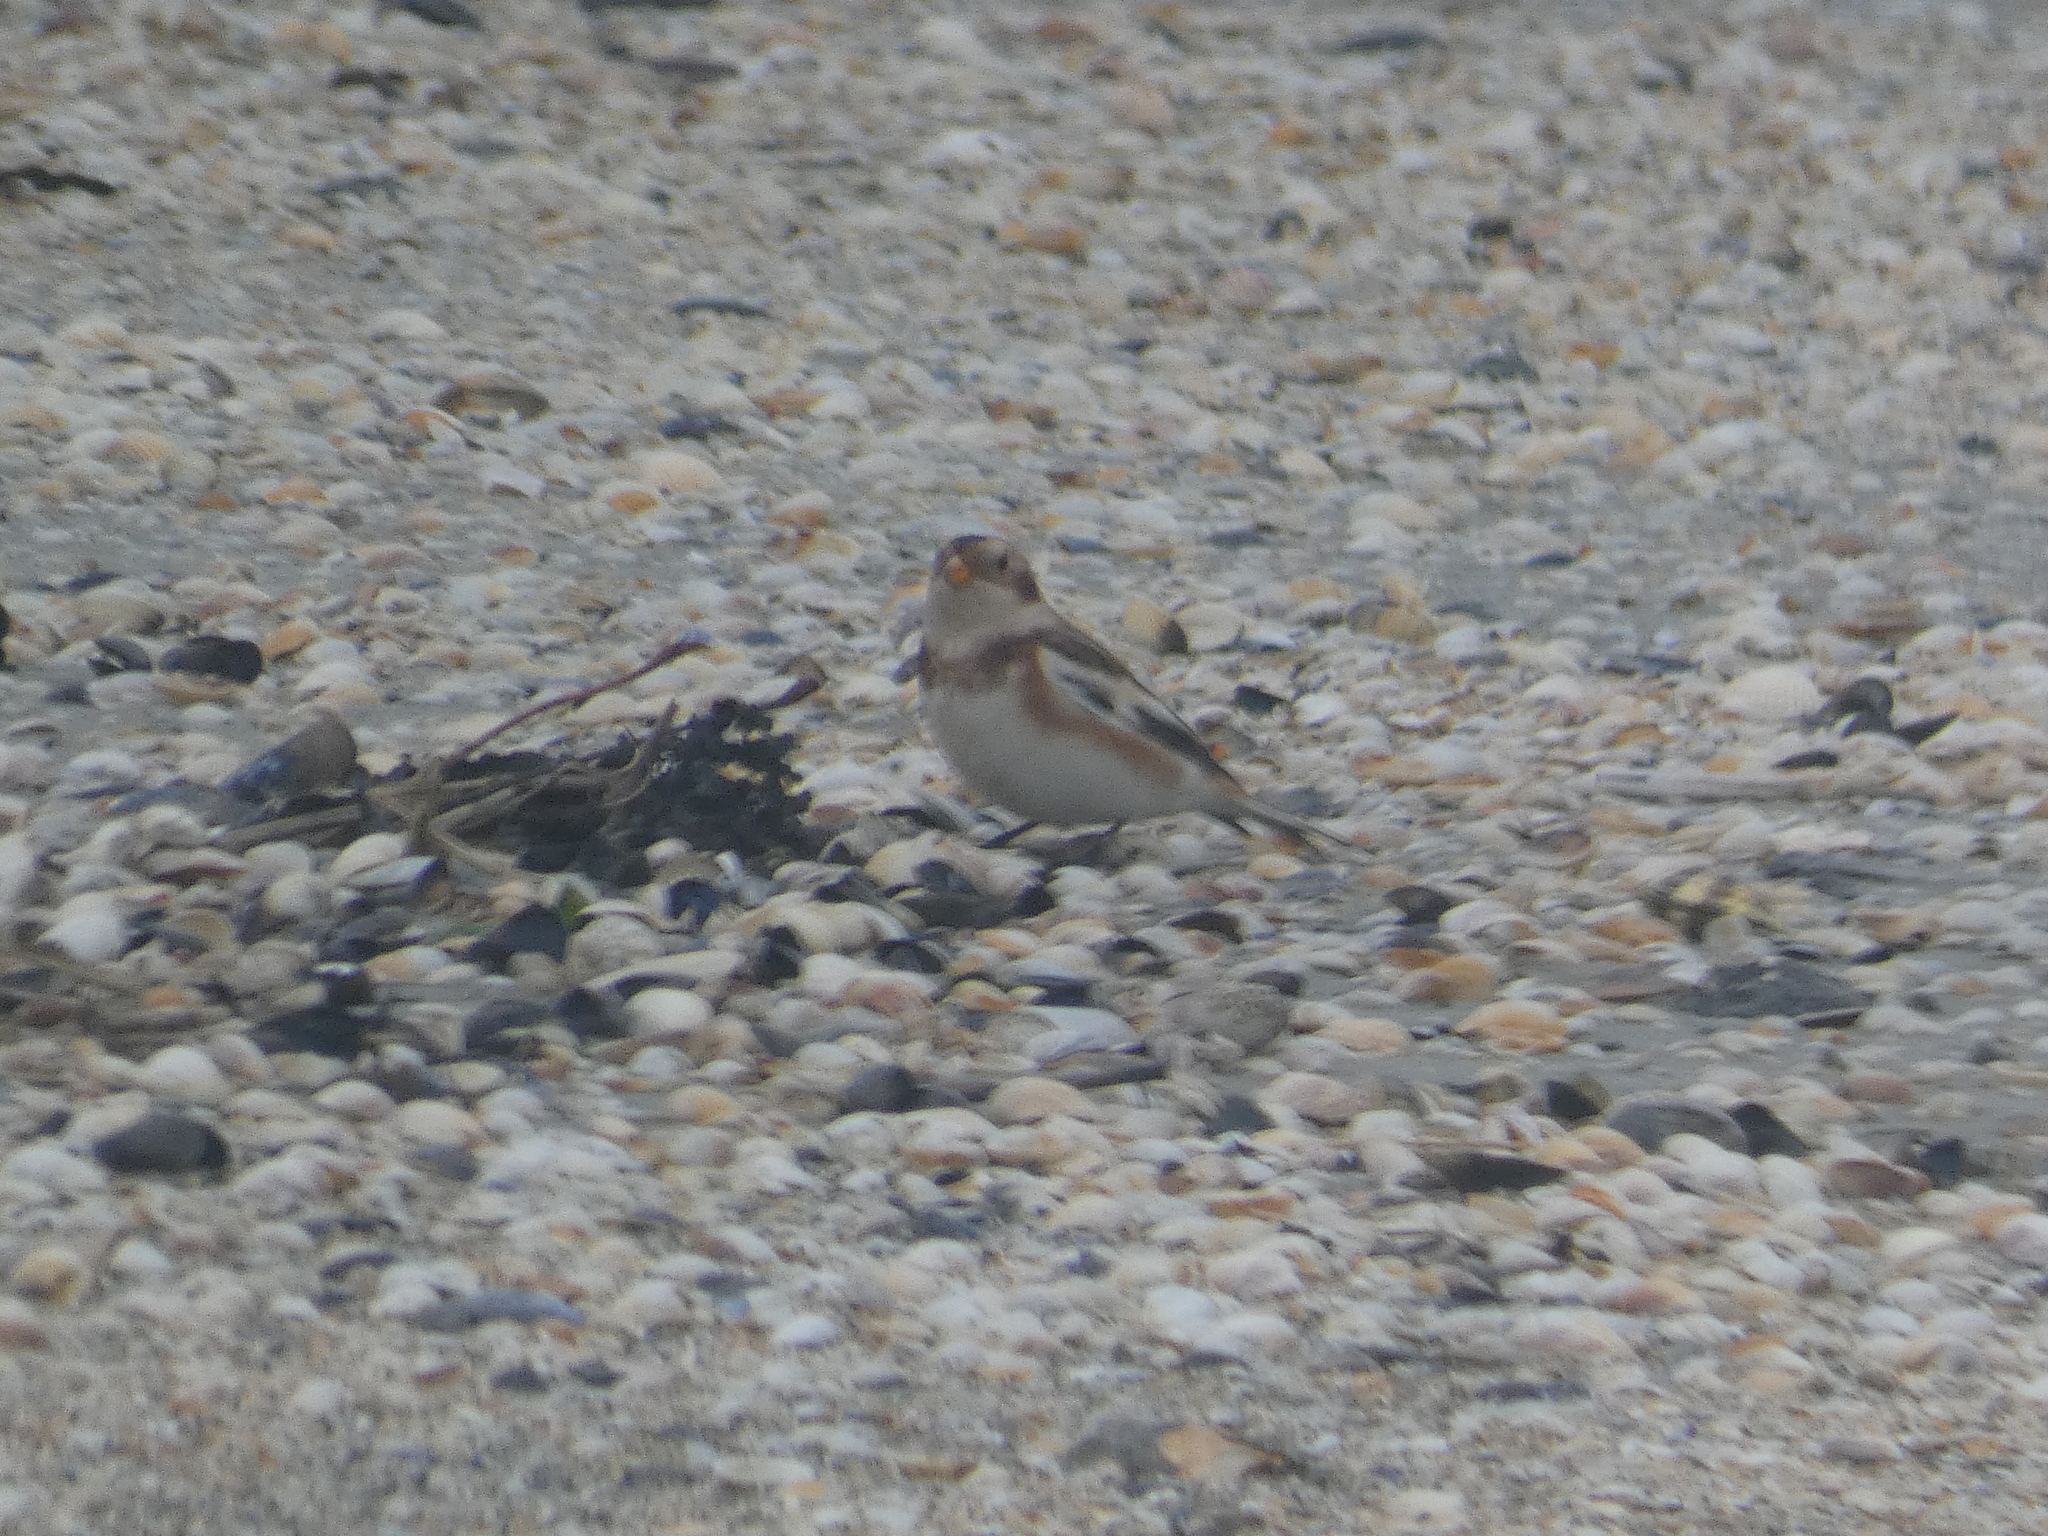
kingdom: Animalia
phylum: Chordata
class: Aves
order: Passeriformes
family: Calcariidae
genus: Plectrophenax
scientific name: Plectrophenax nivalis
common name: Snow bunting
